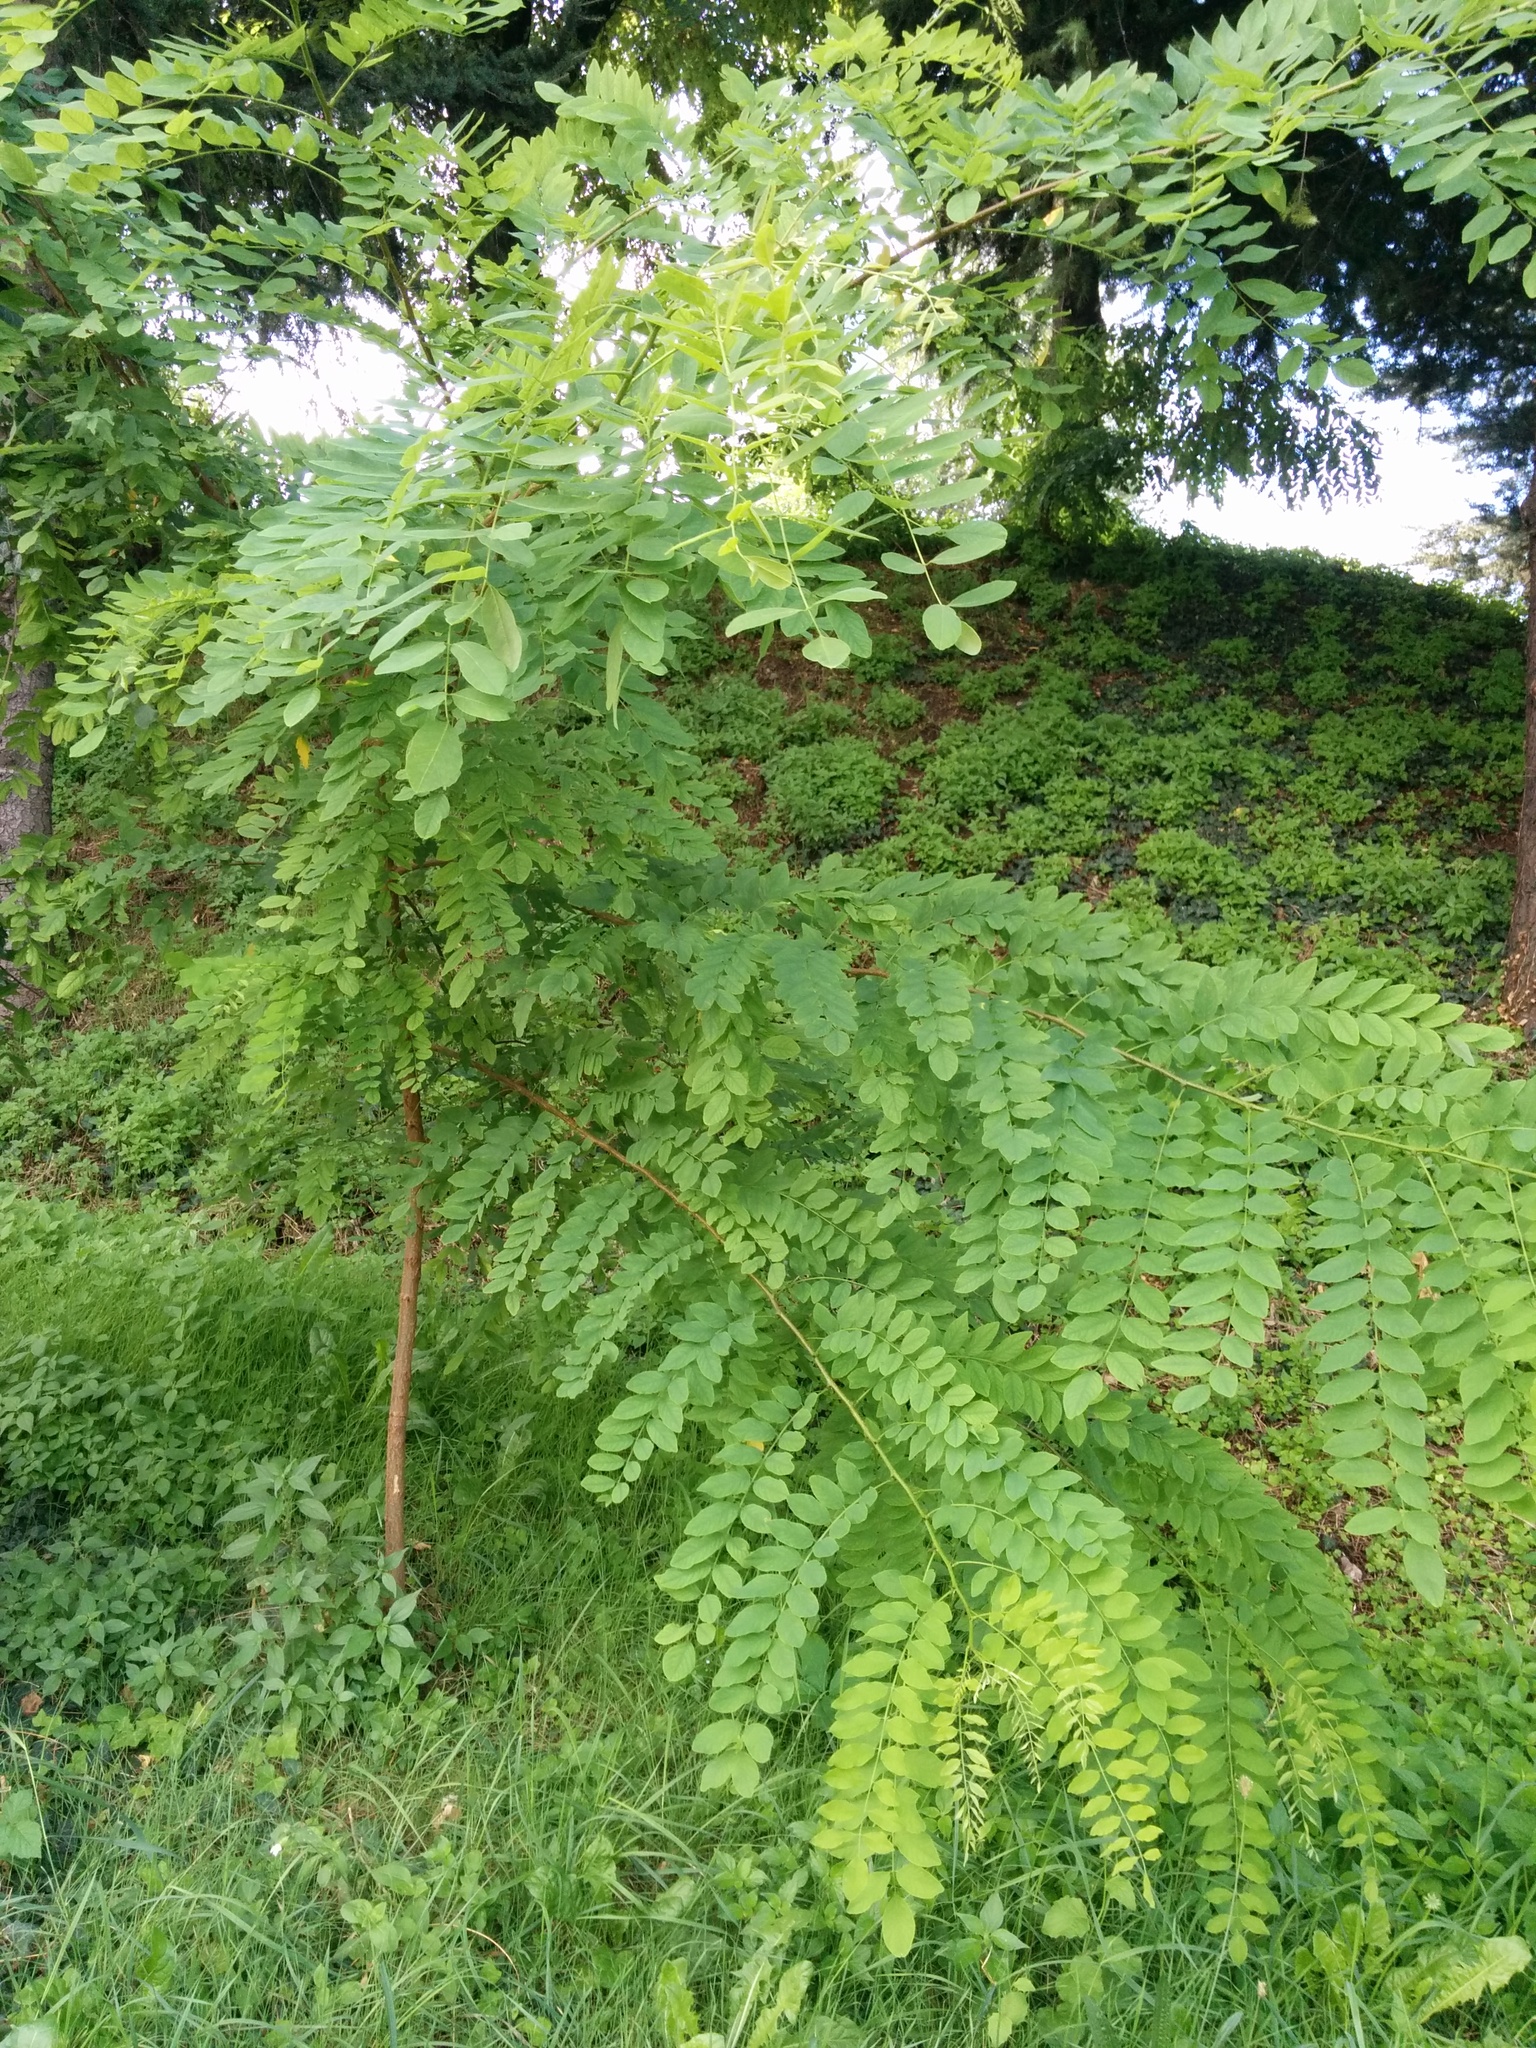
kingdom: Plantae
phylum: Tracheophyta
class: Magnoliopsida
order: Fabales
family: Fabaceae
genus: Robinia
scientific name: Robinia pseudoacacia
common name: Black locust
